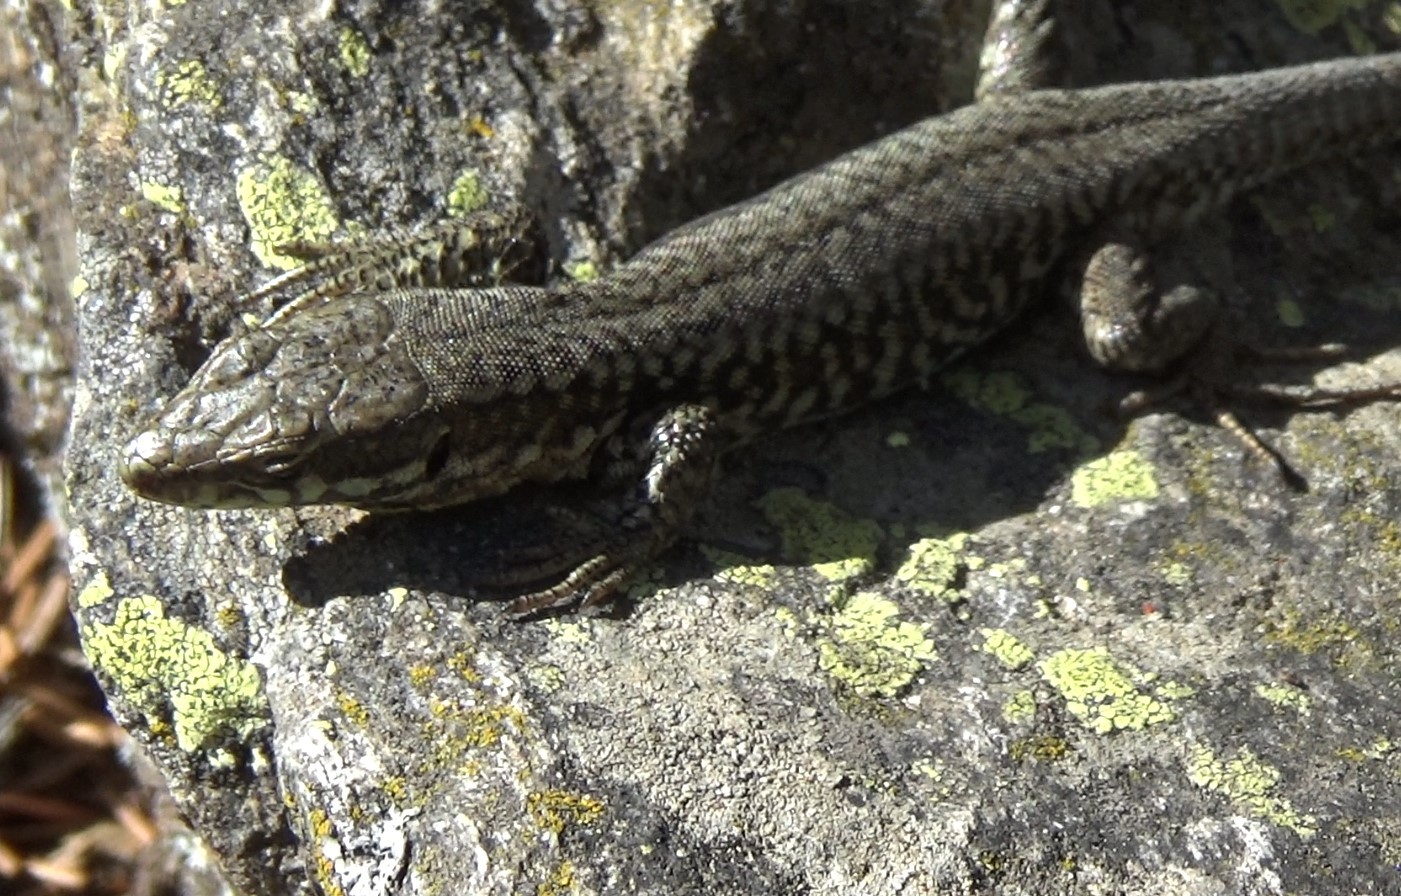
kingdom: Animalia
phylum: Chordata
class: Squamata
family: Lacertidae
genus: Podarcis
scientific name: Podarcis muralis
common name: Common wall lizard
